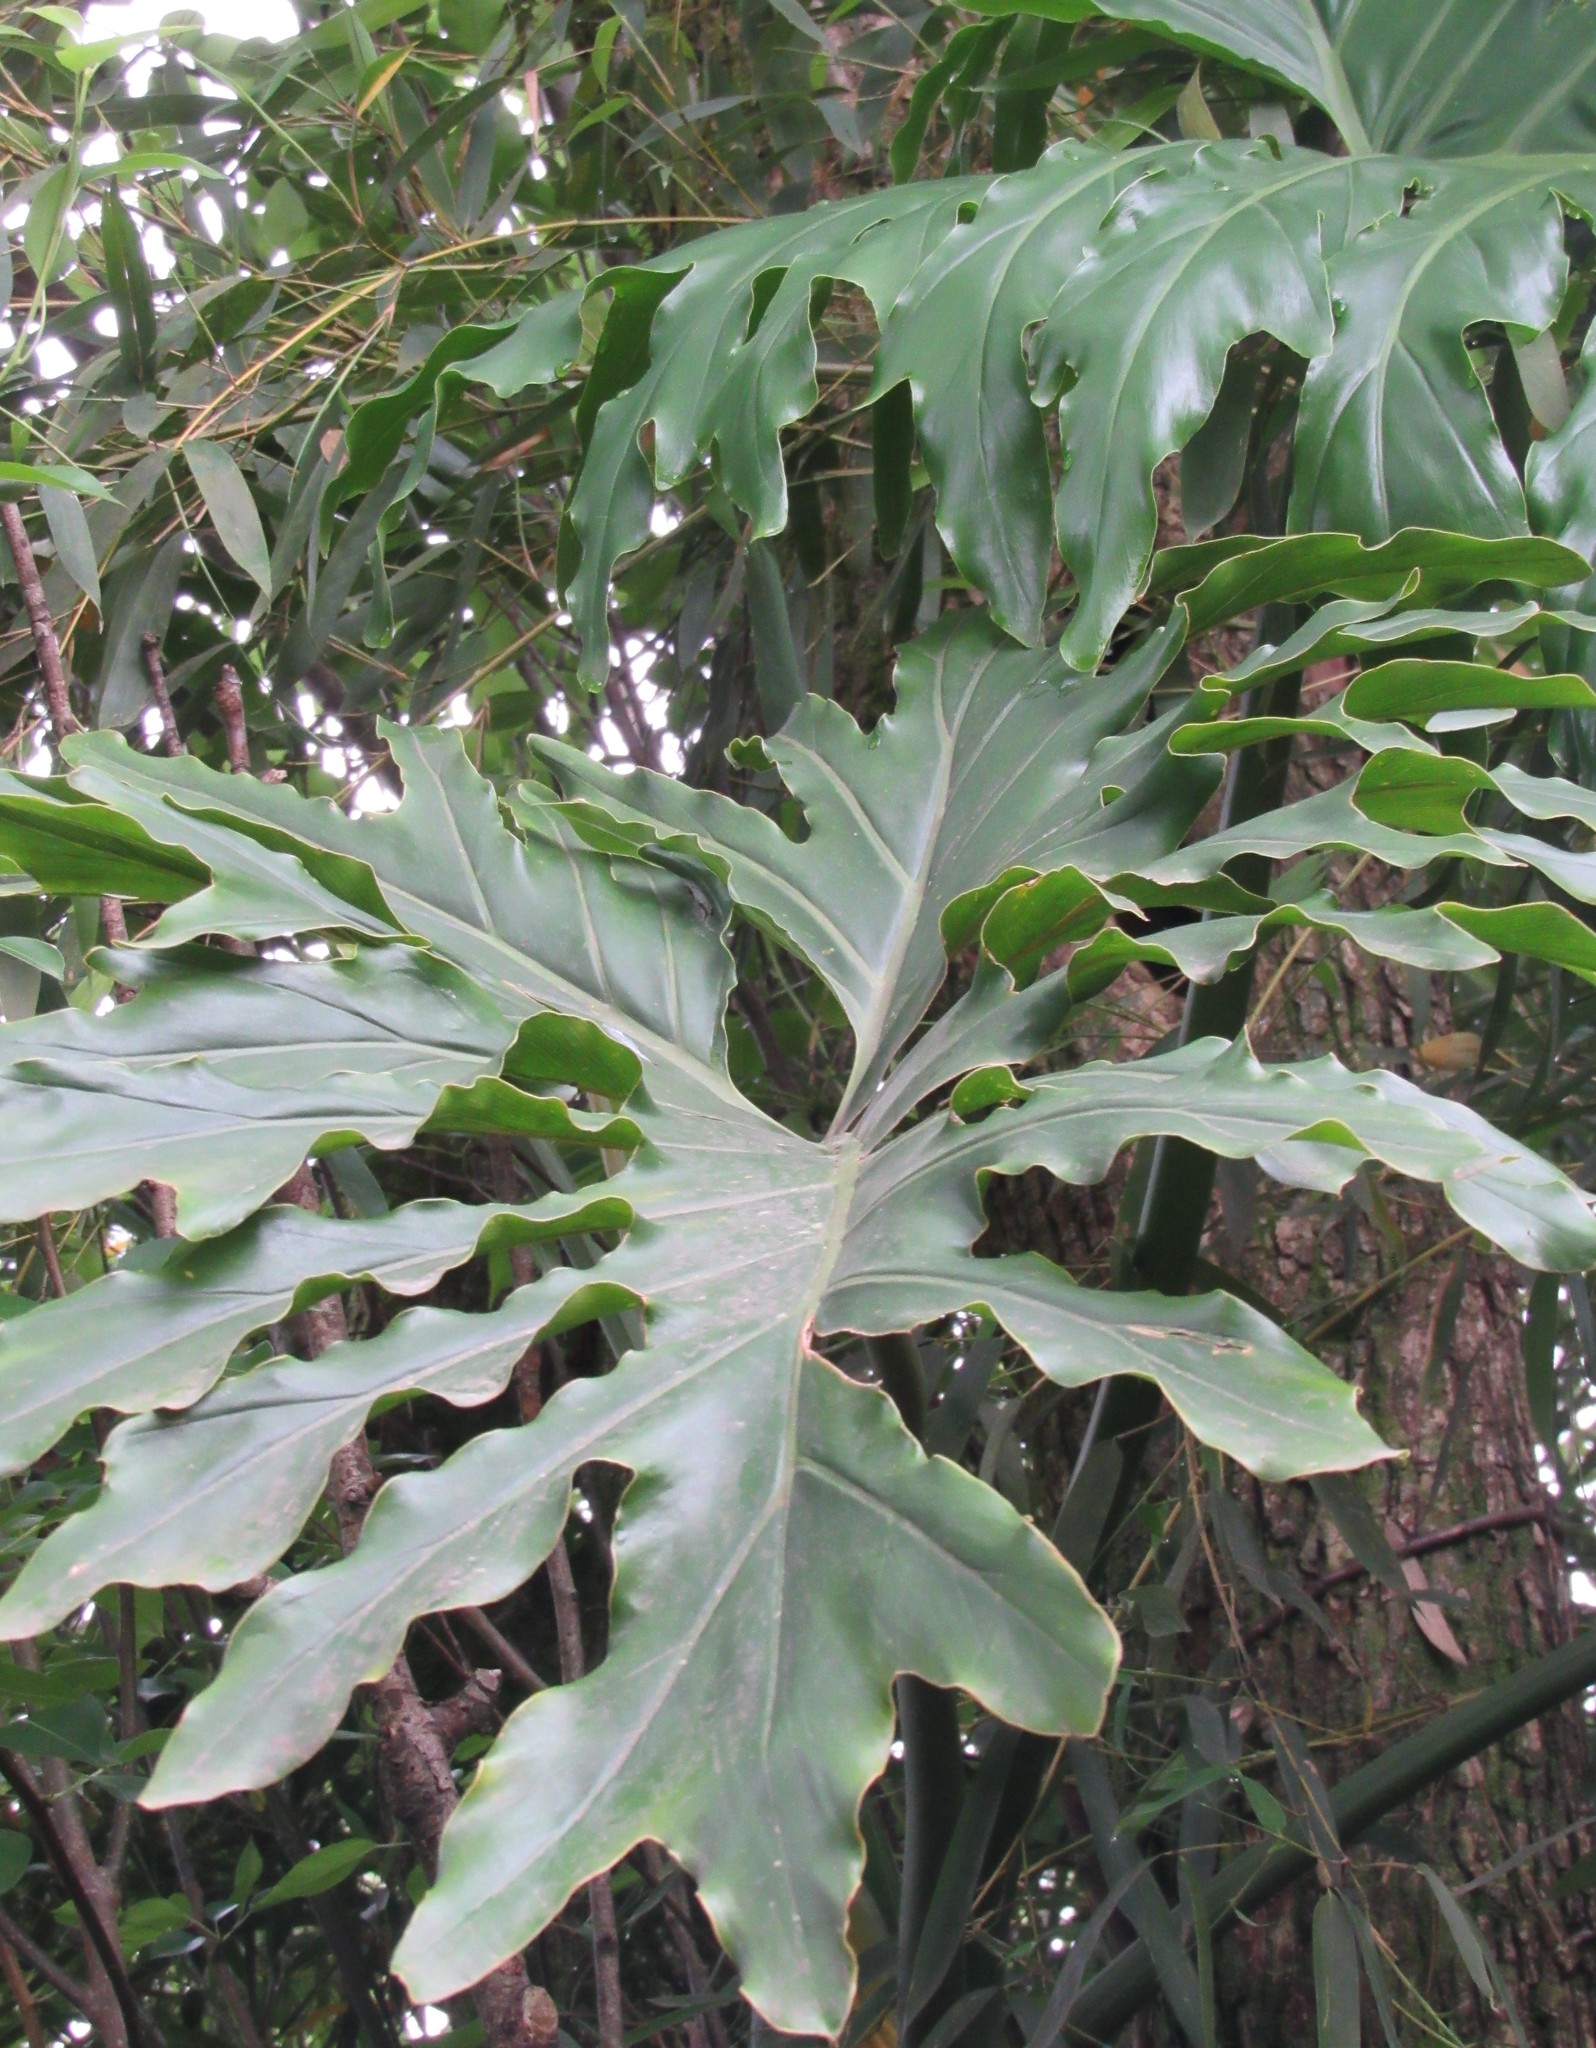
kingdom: Plantae
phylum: Tracheophyta
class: Liliopsida
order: Alismatales
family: Araceae
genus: Thaumatophyllum
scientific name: Thaumatophyllum bipinnatifidum
